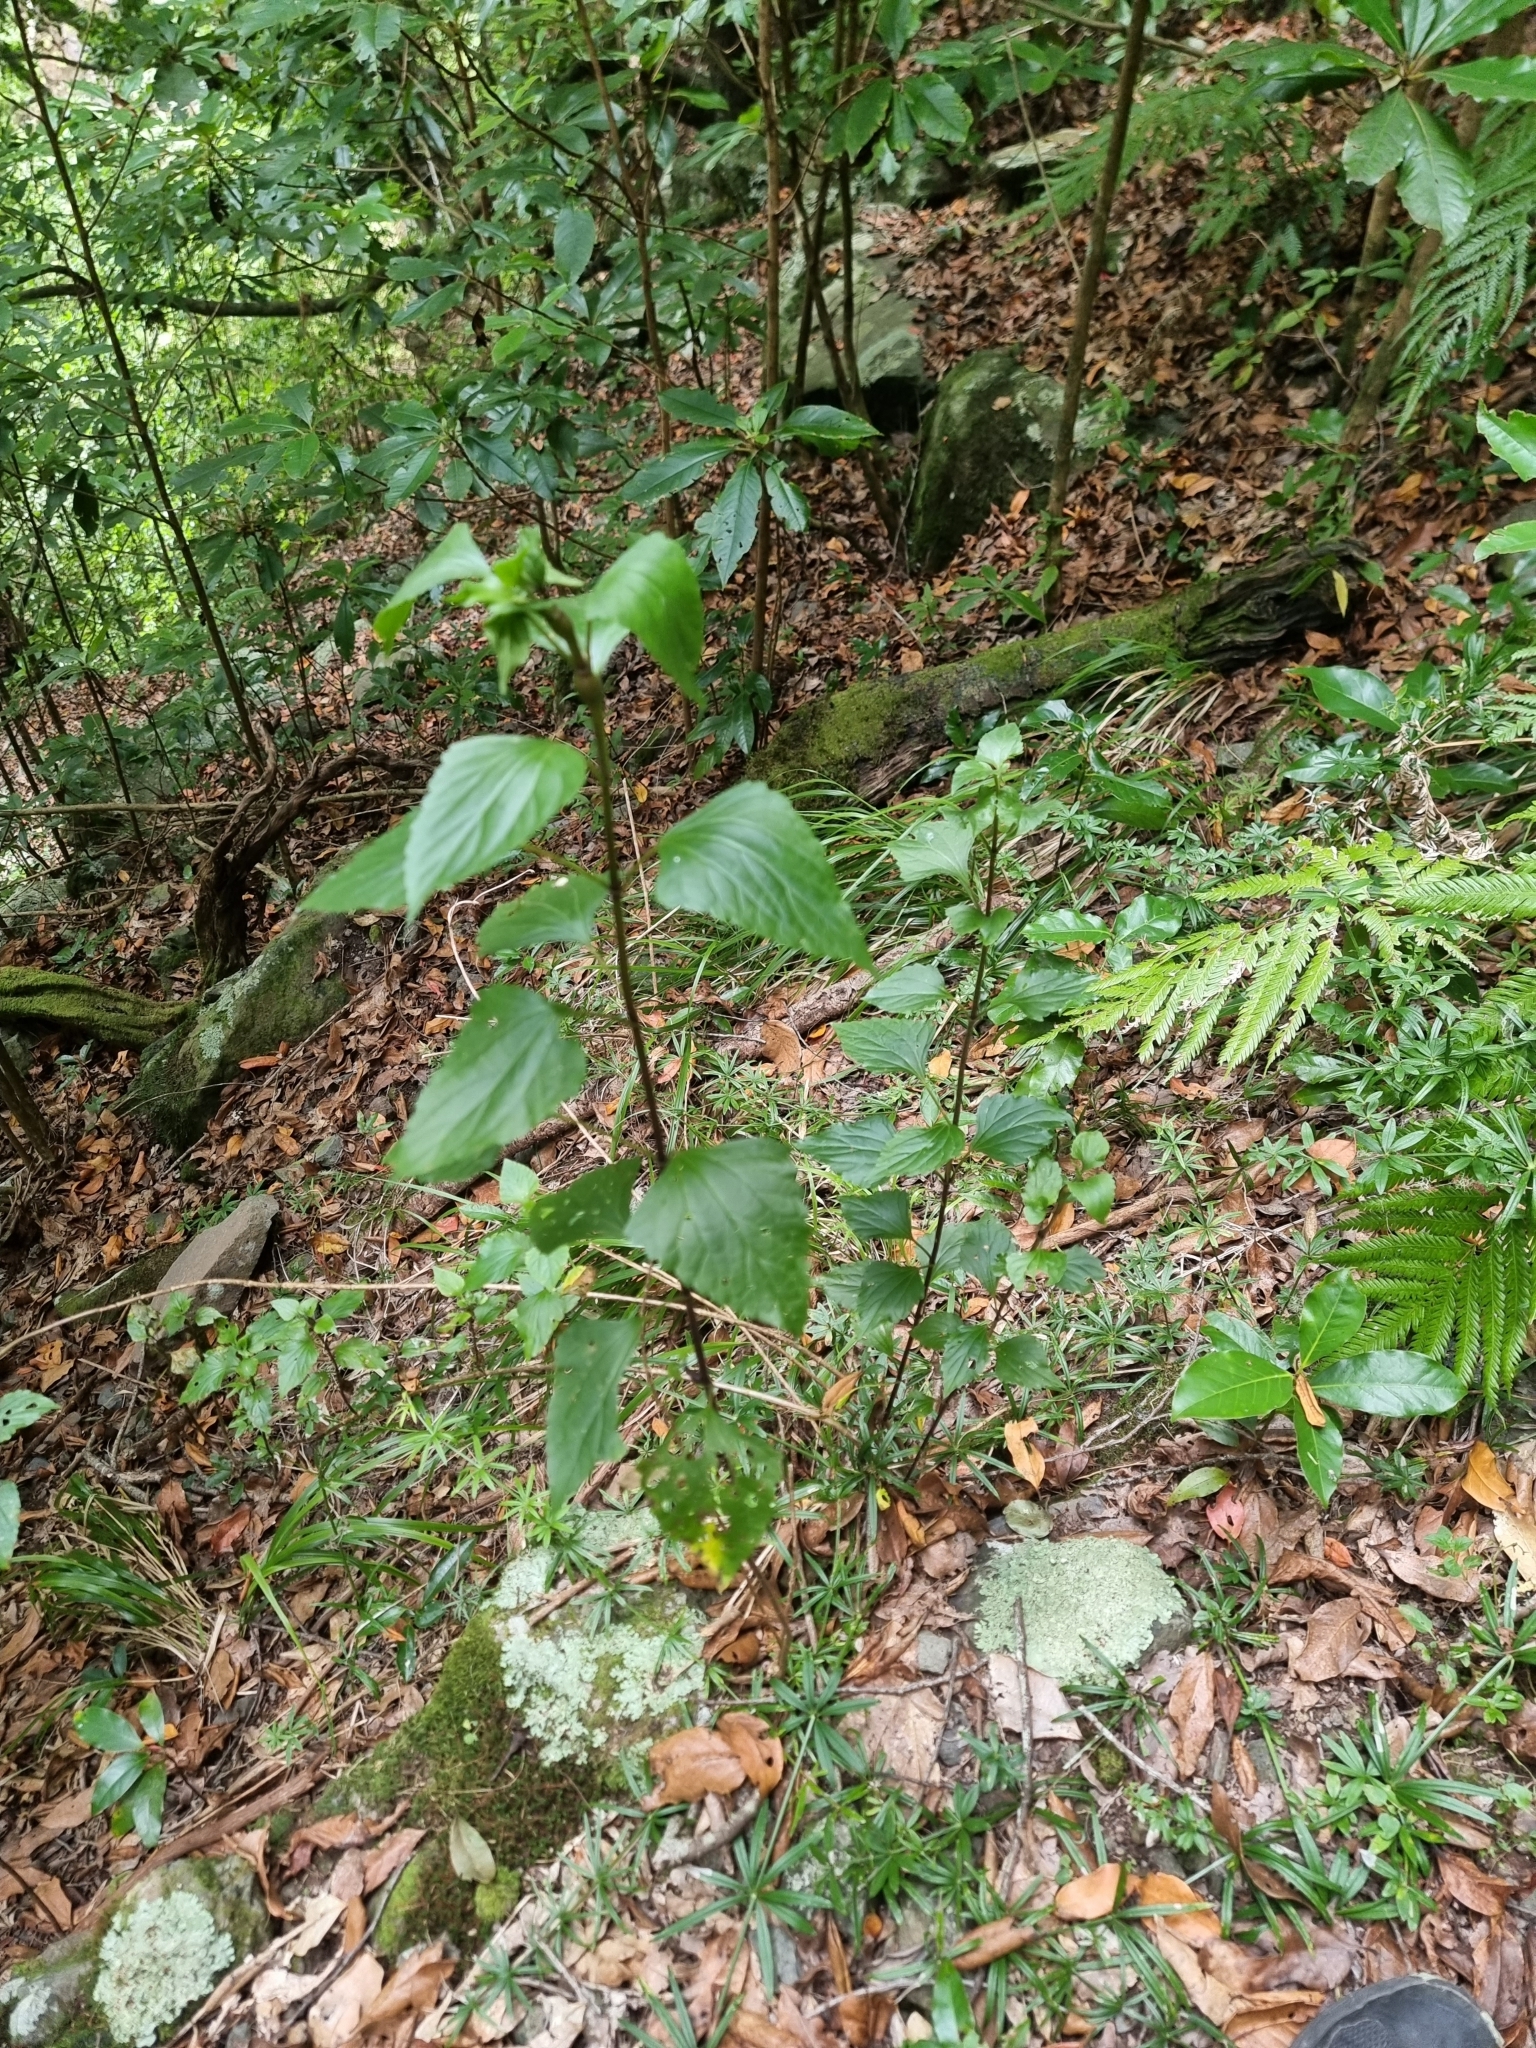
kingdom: Plantae
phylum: Tracheophyta
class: Magnoliopsida
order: Asterales
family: Asteraceae
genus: Ageratina
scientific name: Ageratina adenophora
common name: Sticky snakeroot
